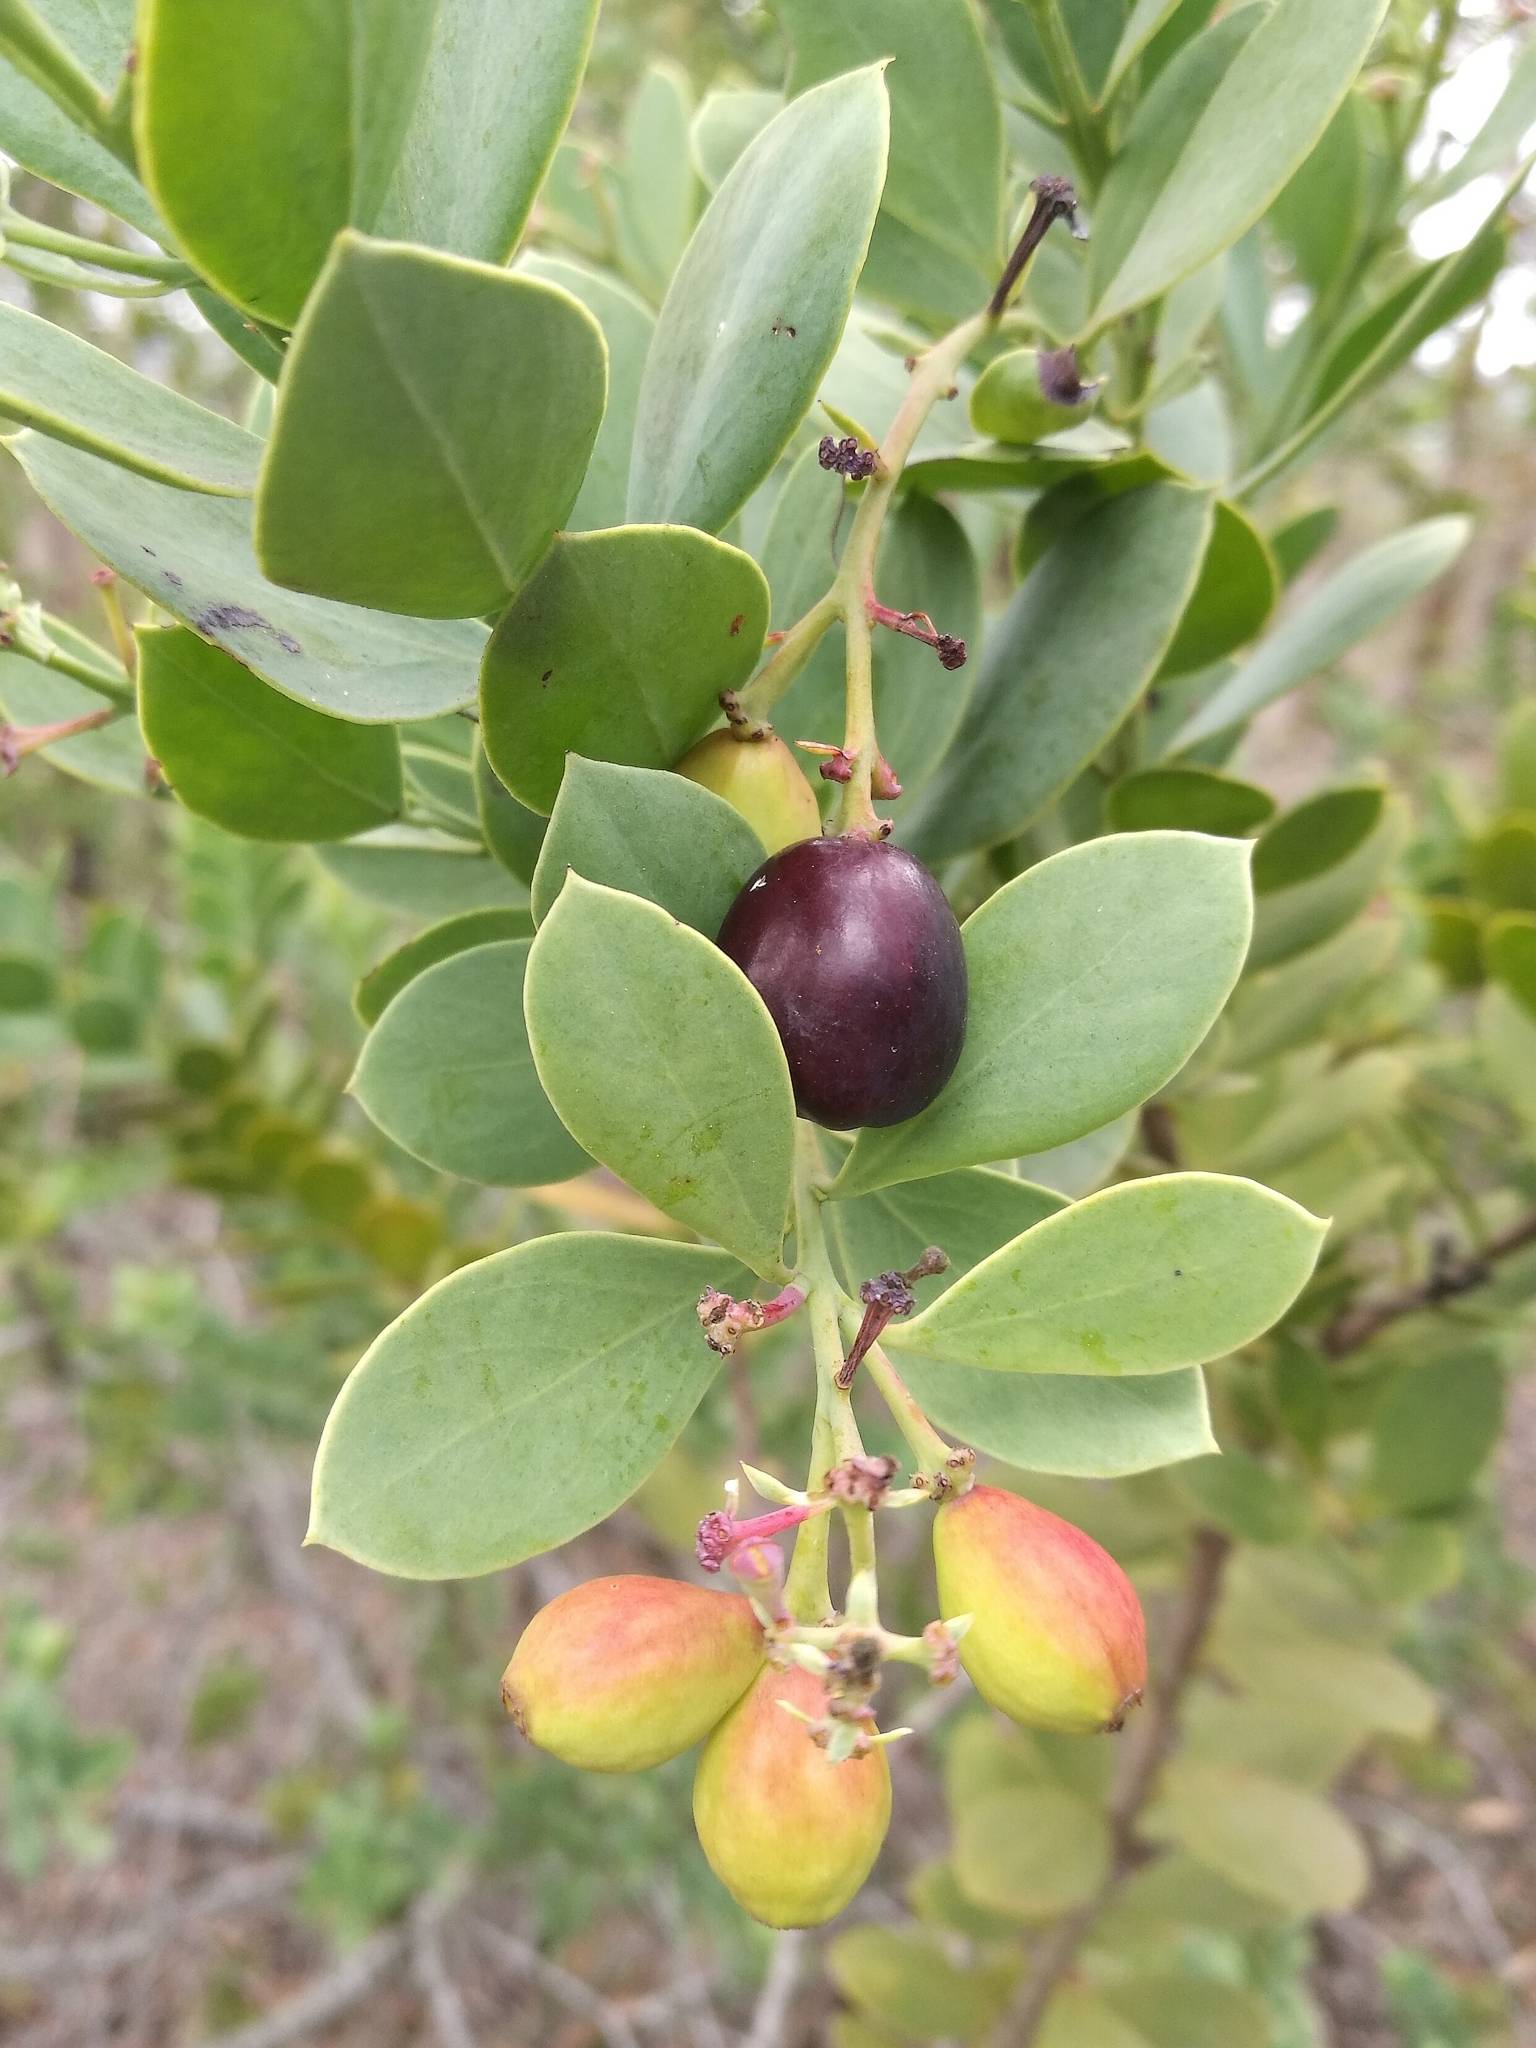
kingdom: Plantae
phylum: Tracheophyta
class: Magnoliopsida
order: Santalales
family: Santalaceae
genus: Osyris
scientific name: Osyris compressa
